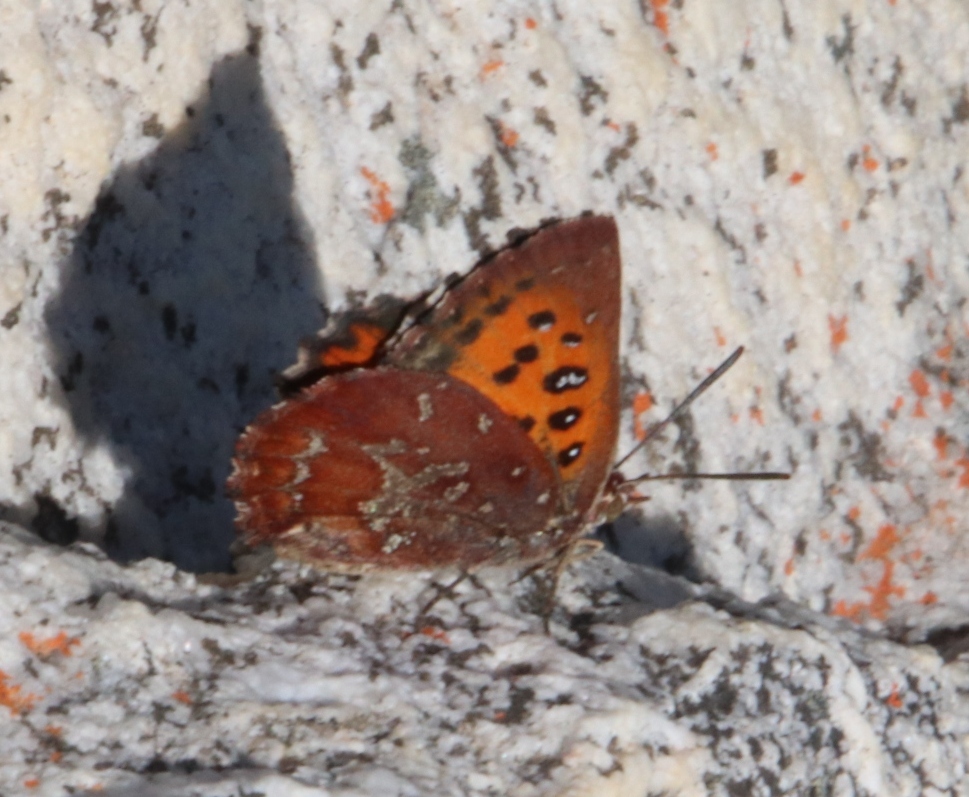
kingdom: Animalia
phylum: Arthropoda
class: Insecta
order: Lepidoptera
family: Lycaenidae
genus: Aloeides
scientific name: Aloeides thyra
